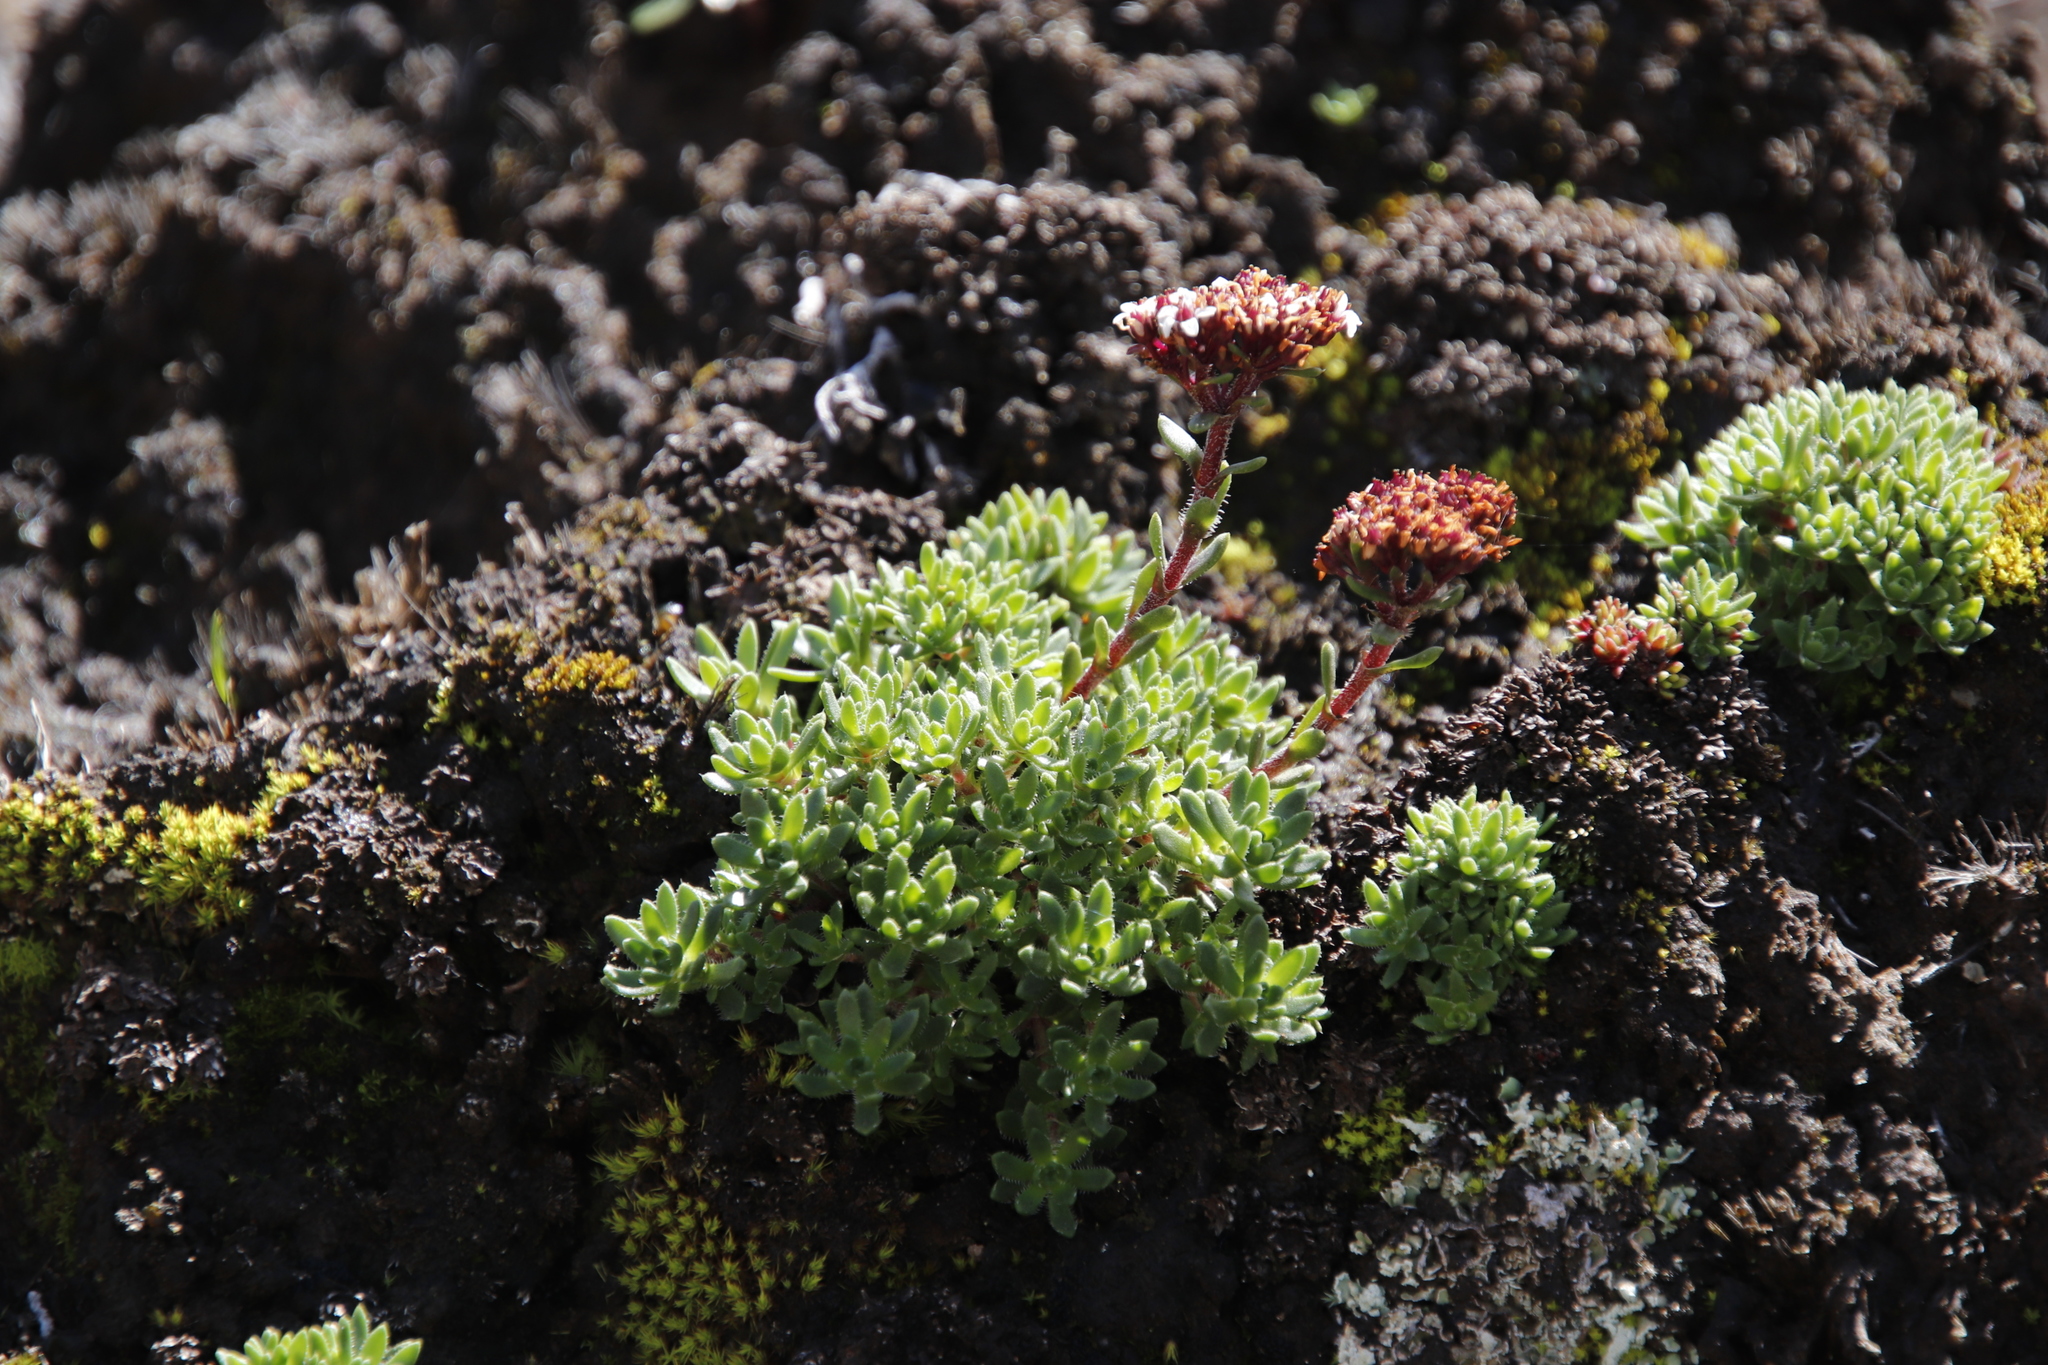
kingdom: Plantae
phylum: Tracheophyta
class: Magnoliopsida
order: Saxifragales
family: Crassulaceae
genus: Crassula
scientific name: Crassula setulosa
